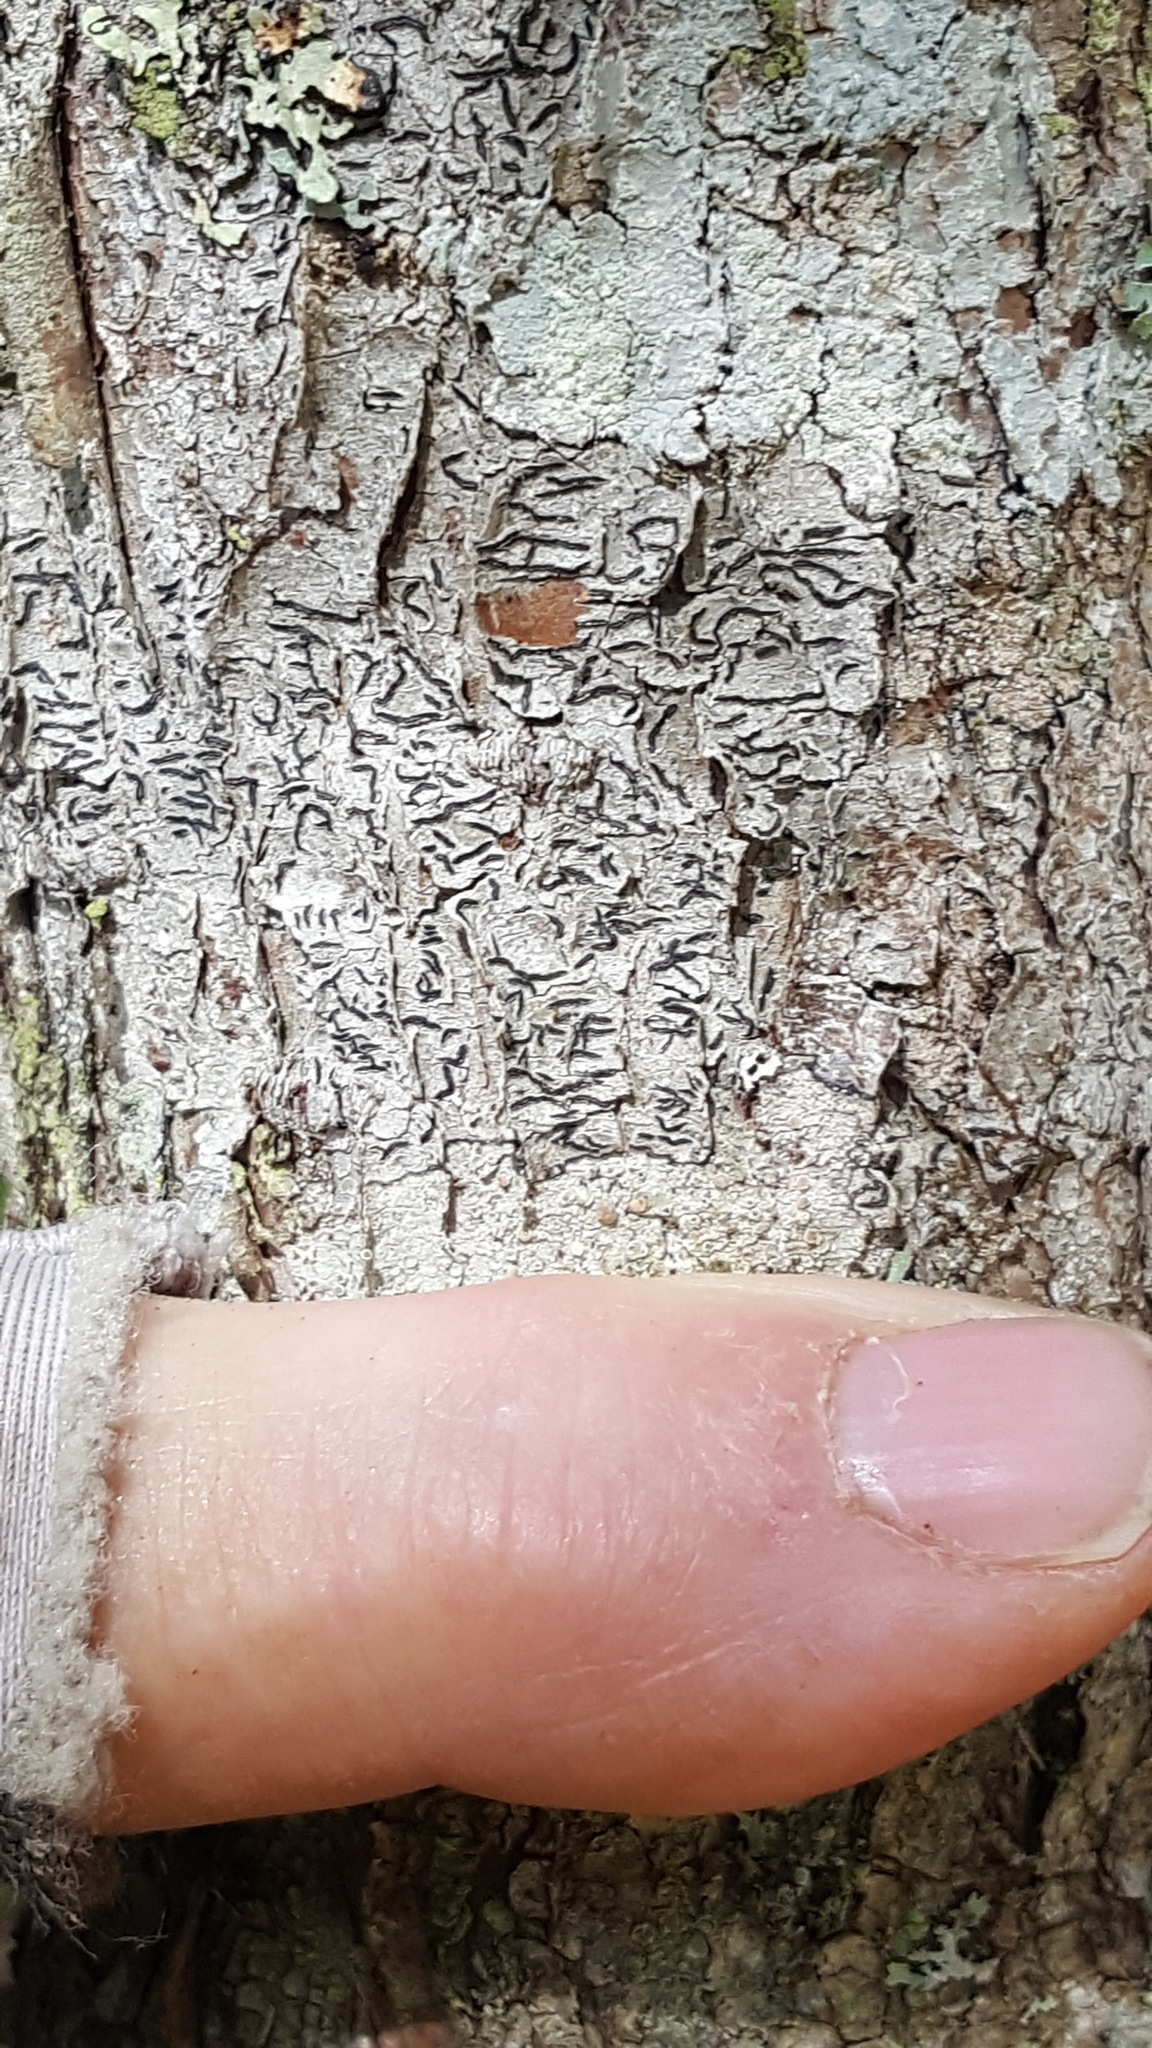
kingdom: Fungi
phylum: Ascomycota
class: Lecanoromycetes
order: Ostropales
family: Graphidaceae
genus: Graphis
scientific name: Graphis scripta
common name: Script lichen
